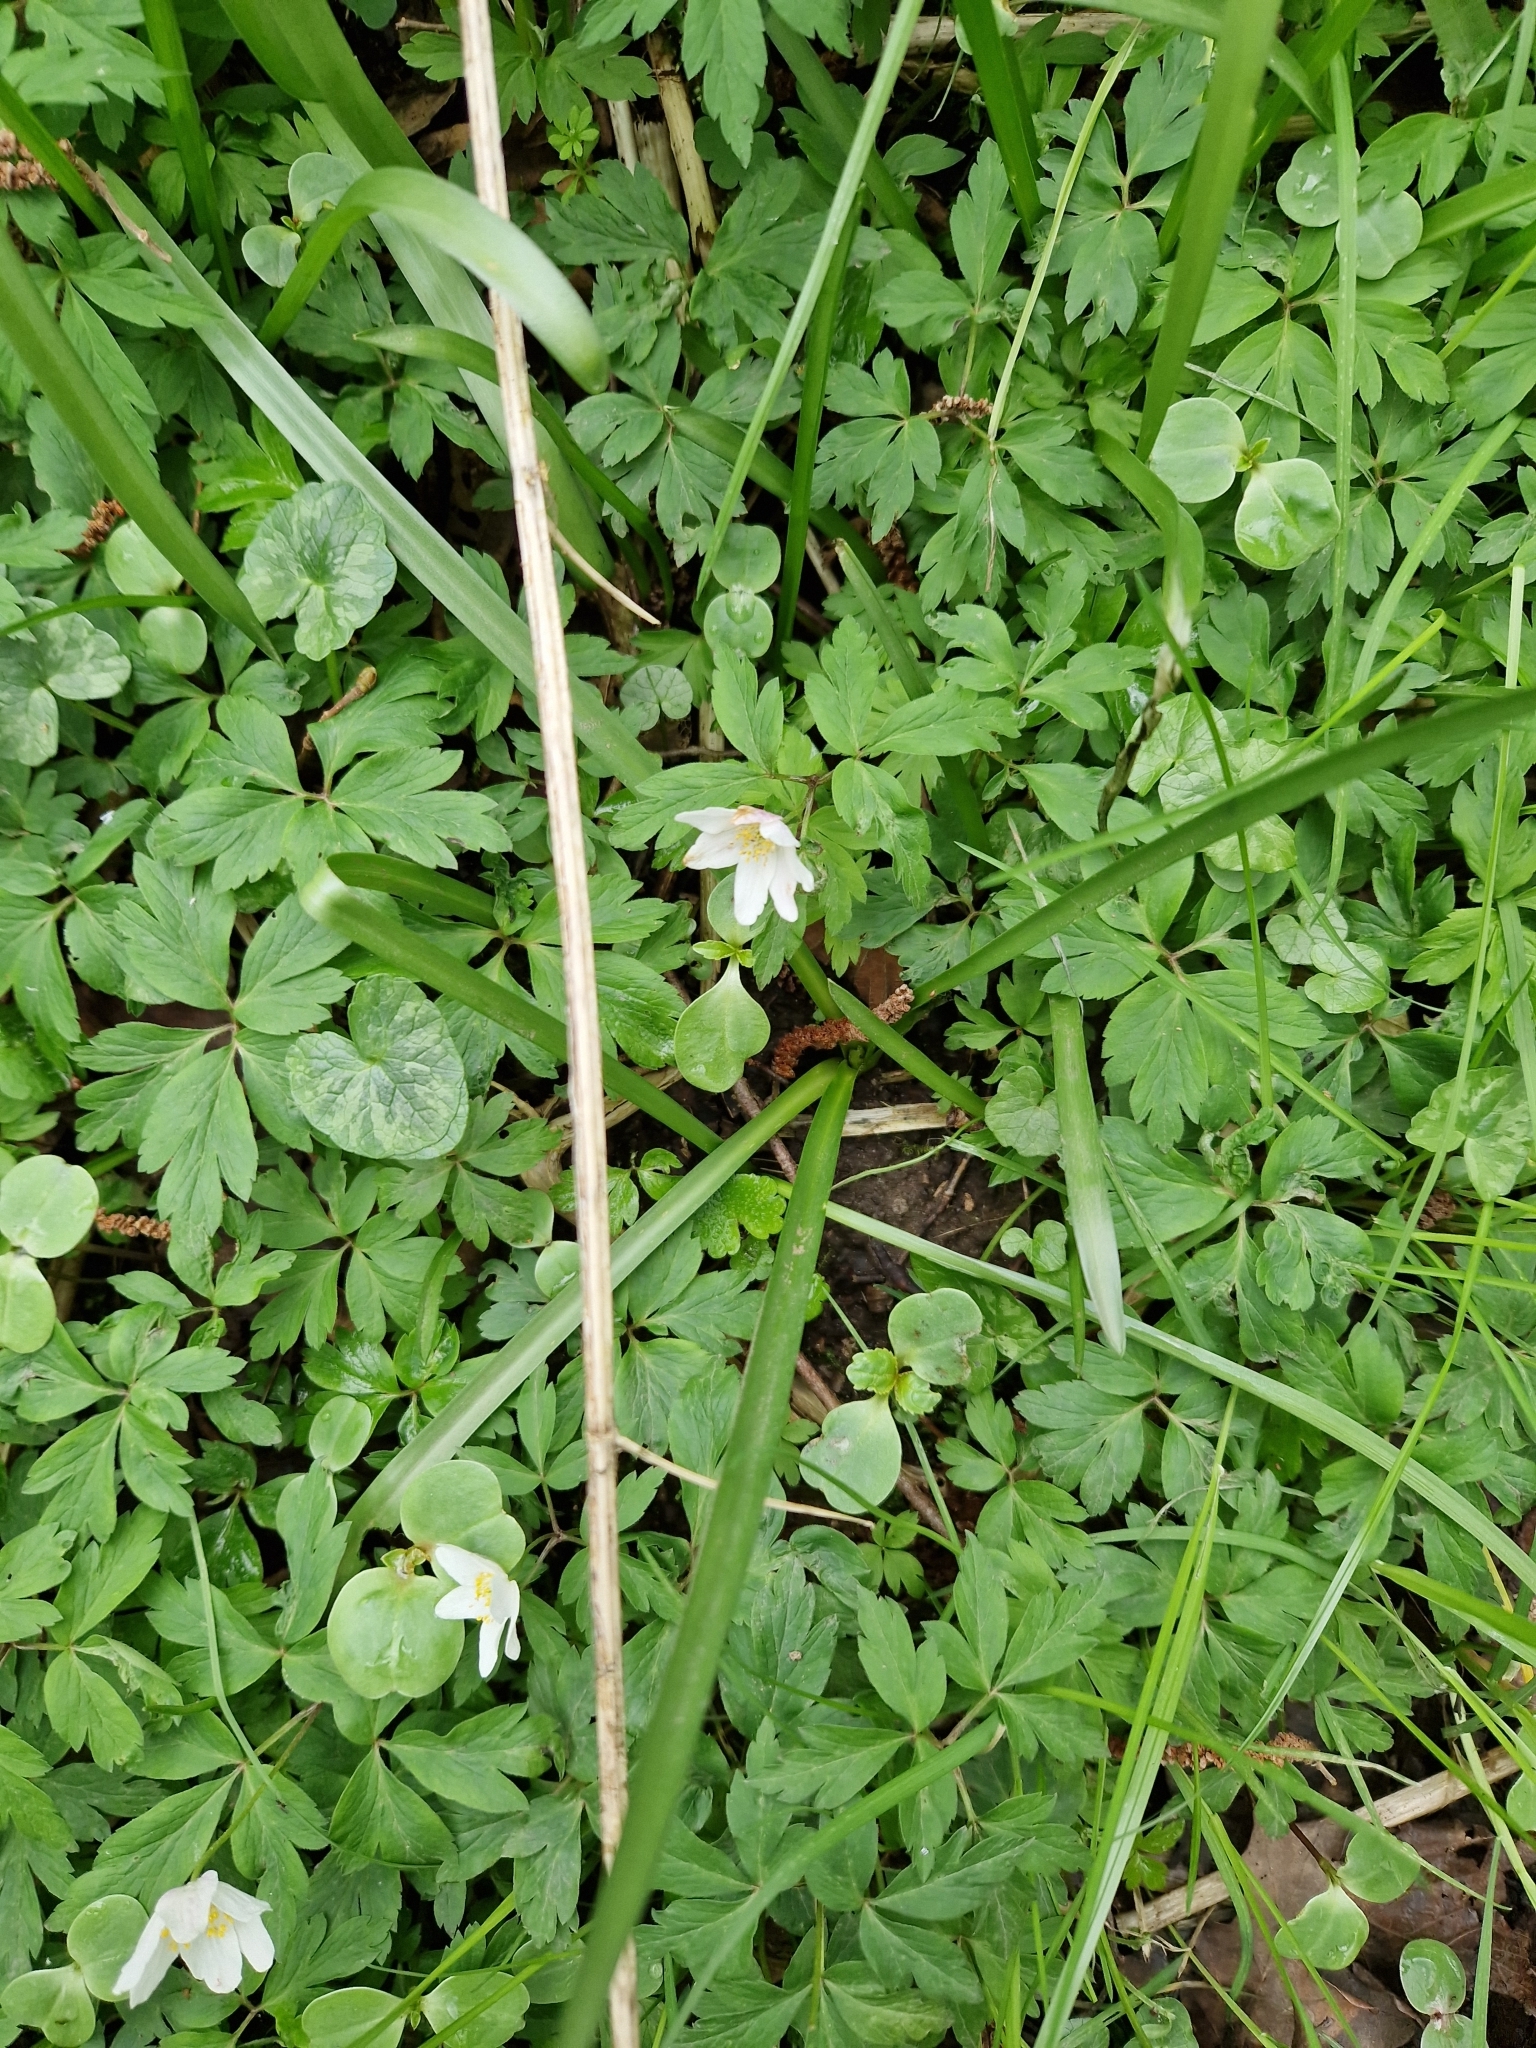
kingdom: Plantae
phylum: Tracheophyta
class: Magnoliopsida
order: Ranunculales
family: Ranunculaceae
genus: Anemone
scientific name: Anemone nemorosa
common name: Wood anemone
